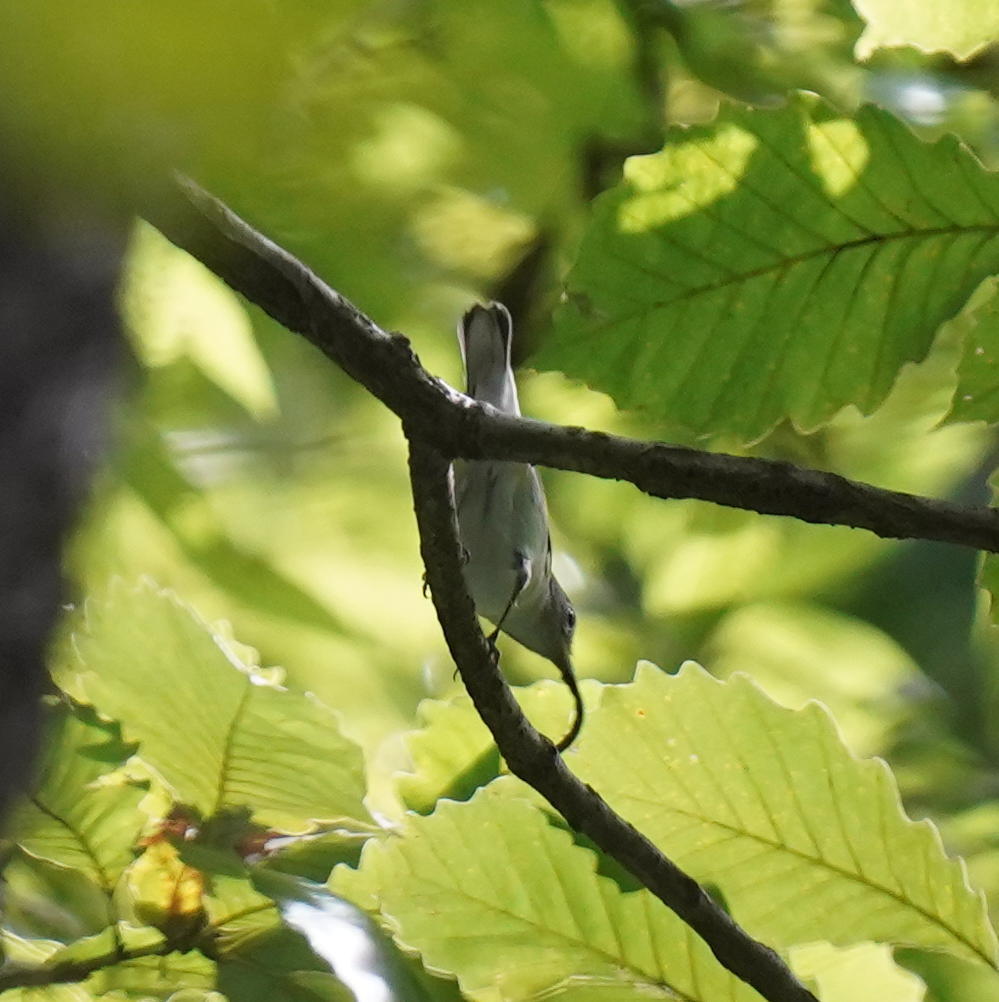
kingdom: Animalia
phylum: Chordata
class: Aves
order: Passeriformes
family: Parulidae
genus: Setophaga
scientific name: Setophaga pensylvanica
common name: Chestnut-sided warbler
